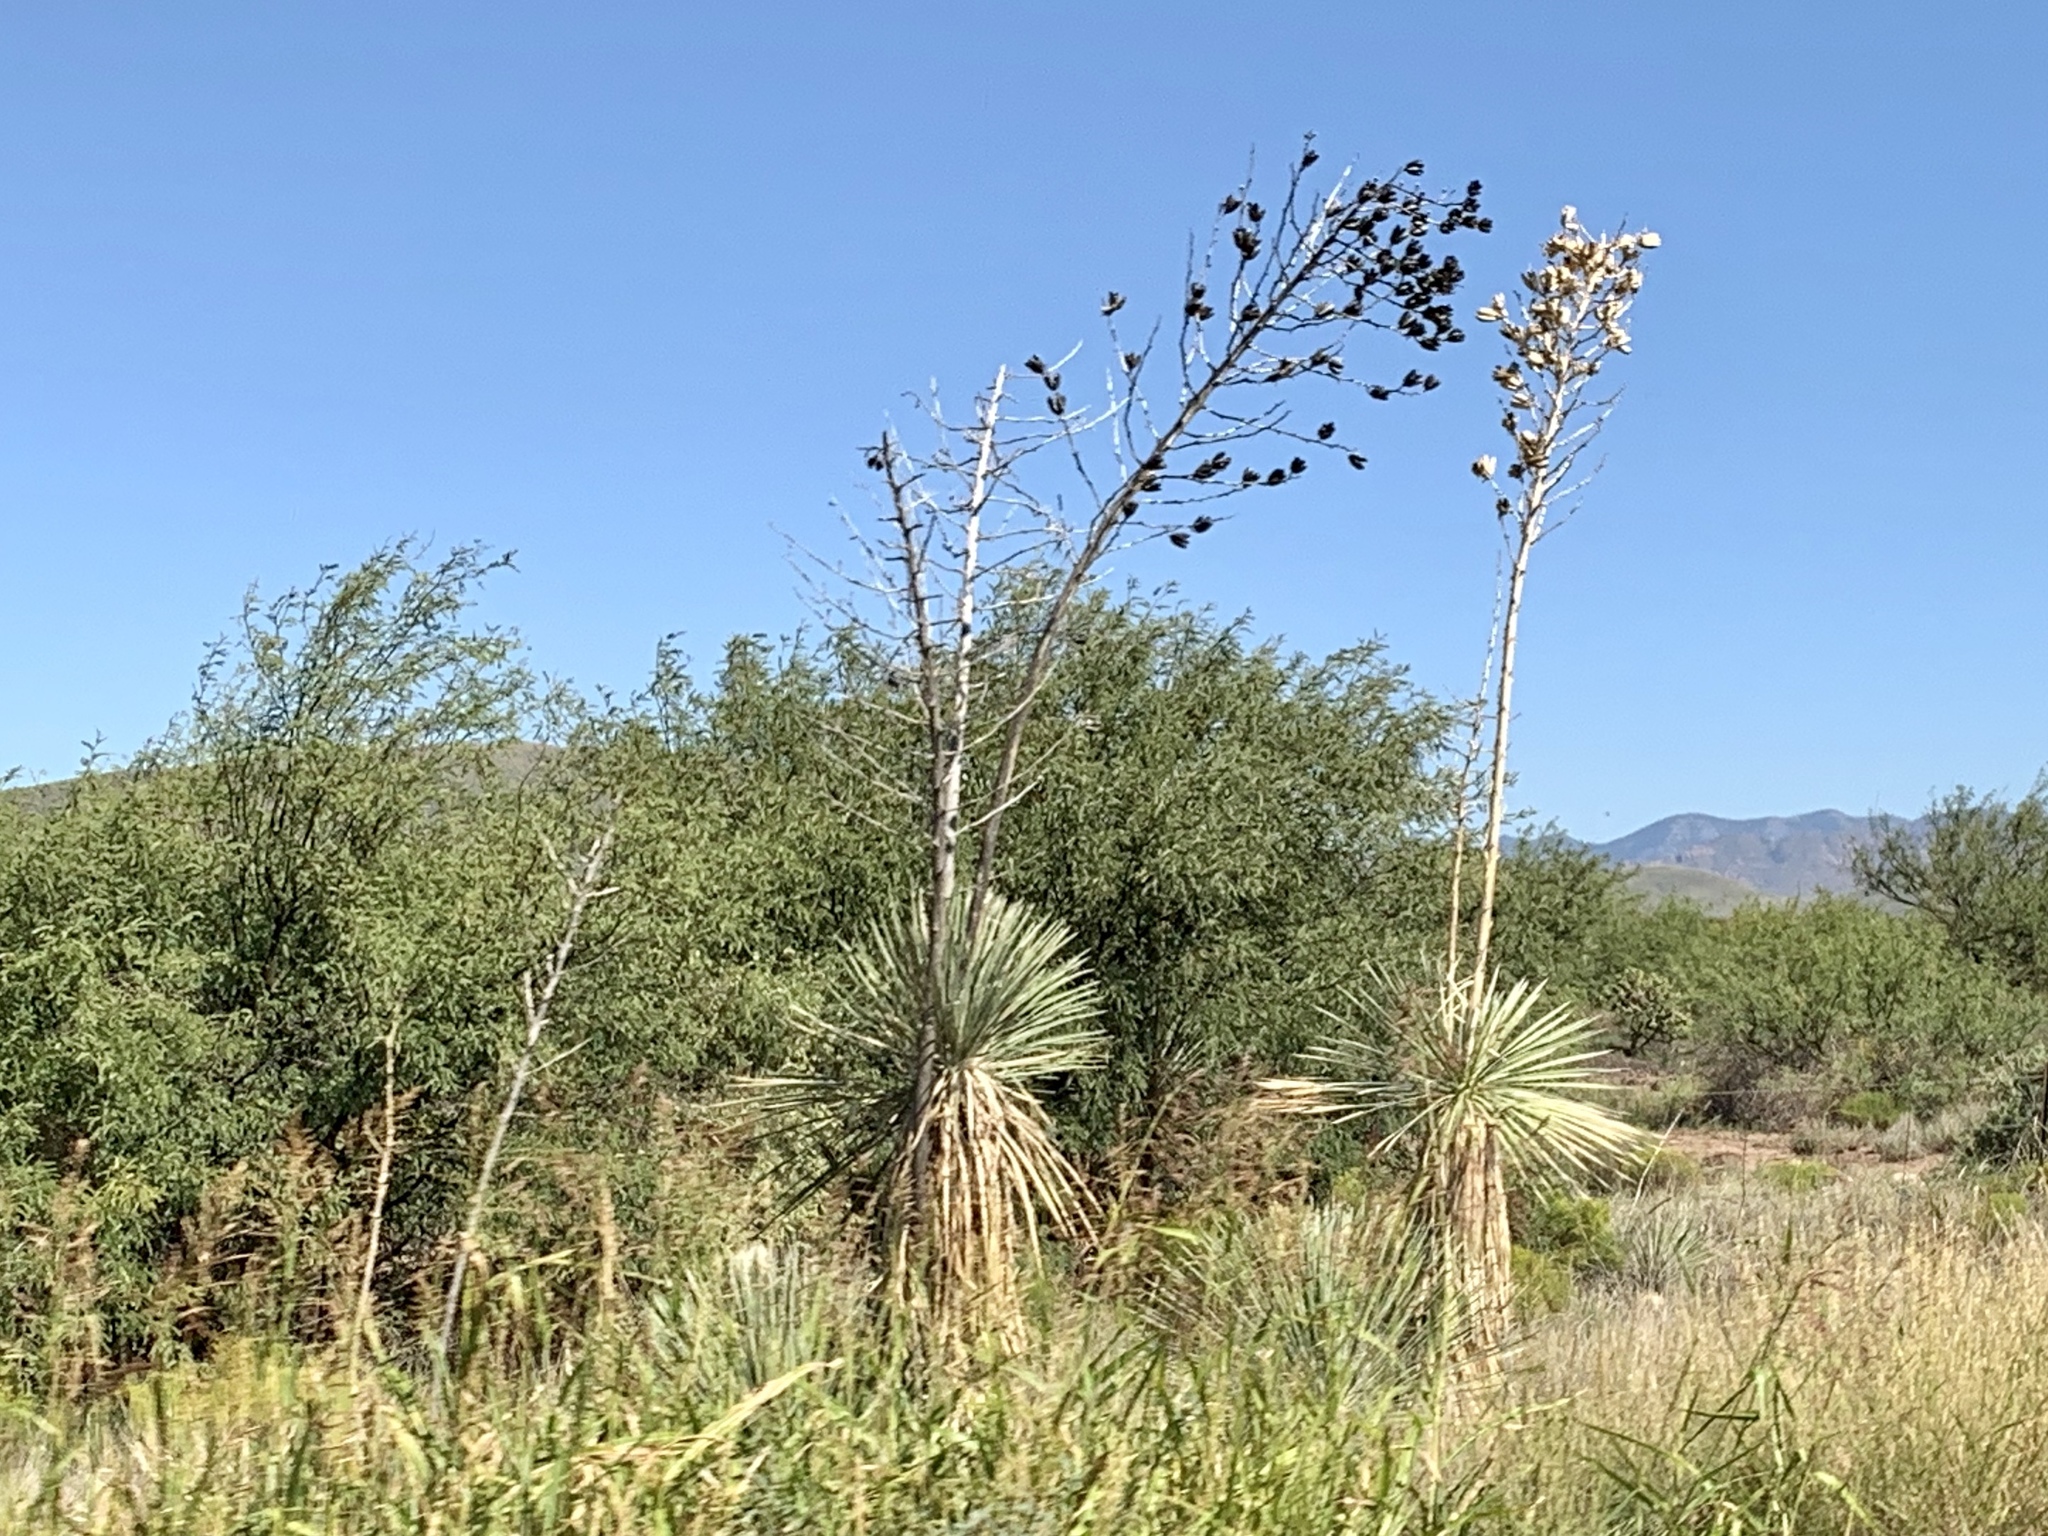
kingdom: Plantae
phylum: Tracheophyta
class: Liliopsida
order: Asparagales
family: Asparagaceae
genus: Yucca
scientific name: Yucca elata
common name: Palmella
